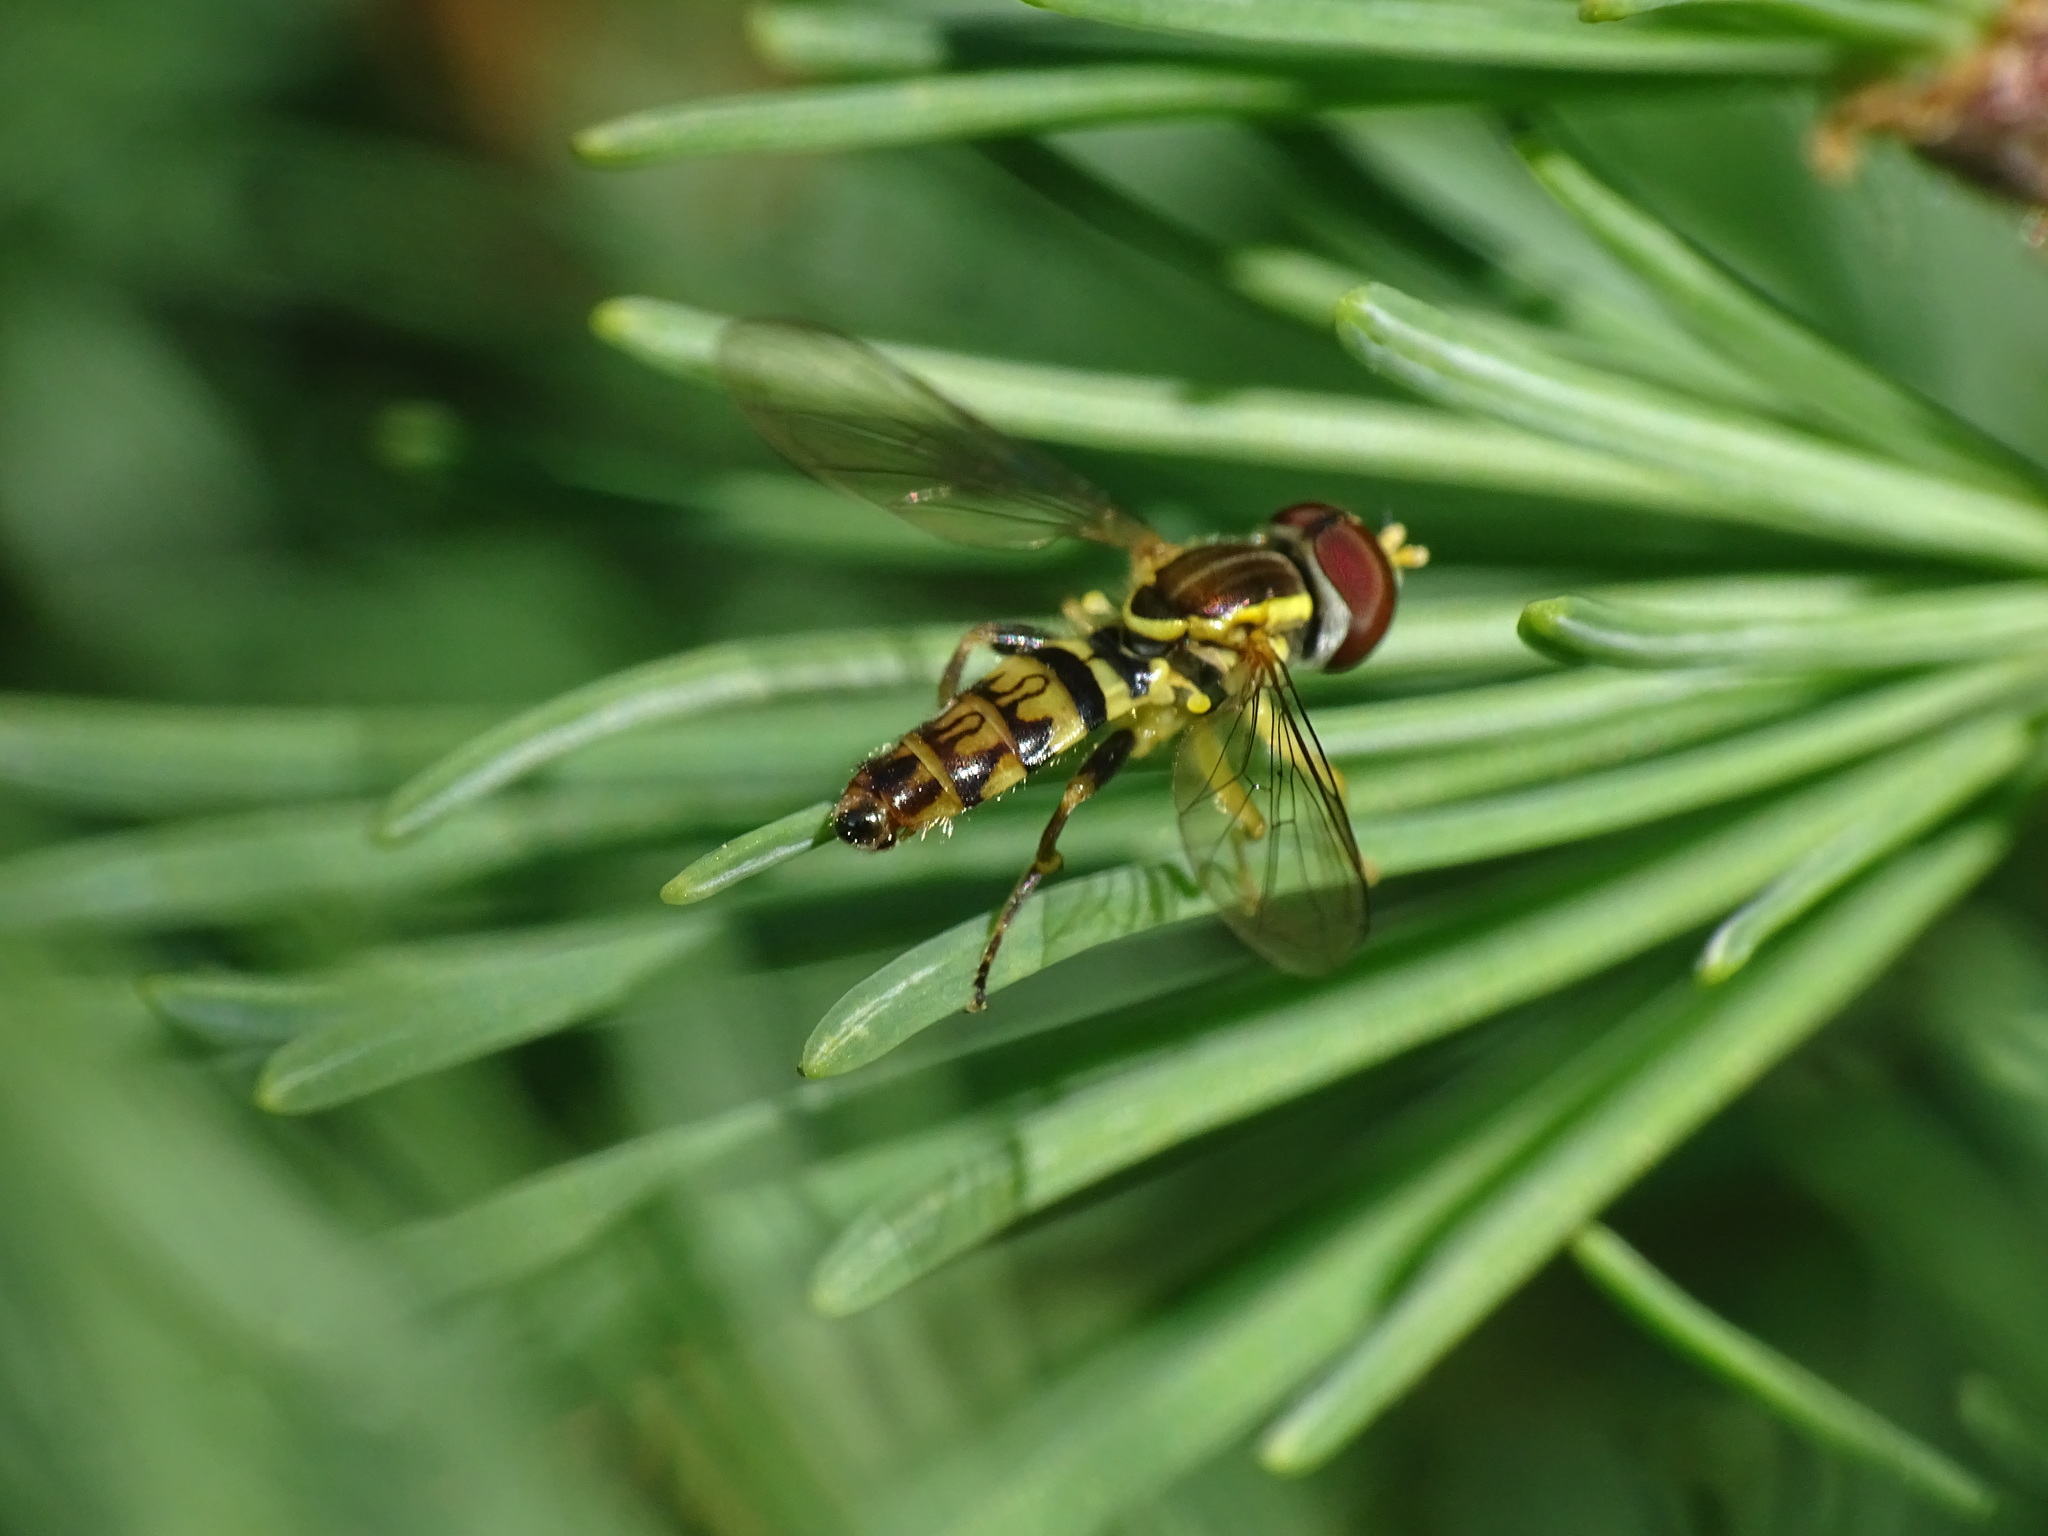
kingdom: Animalia
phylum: Arthropoda
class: Insecta
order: Diptera
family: Syrphidae
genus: Toxomerus
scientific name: Toxomerus geminatus
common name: Eastern calligrapher
